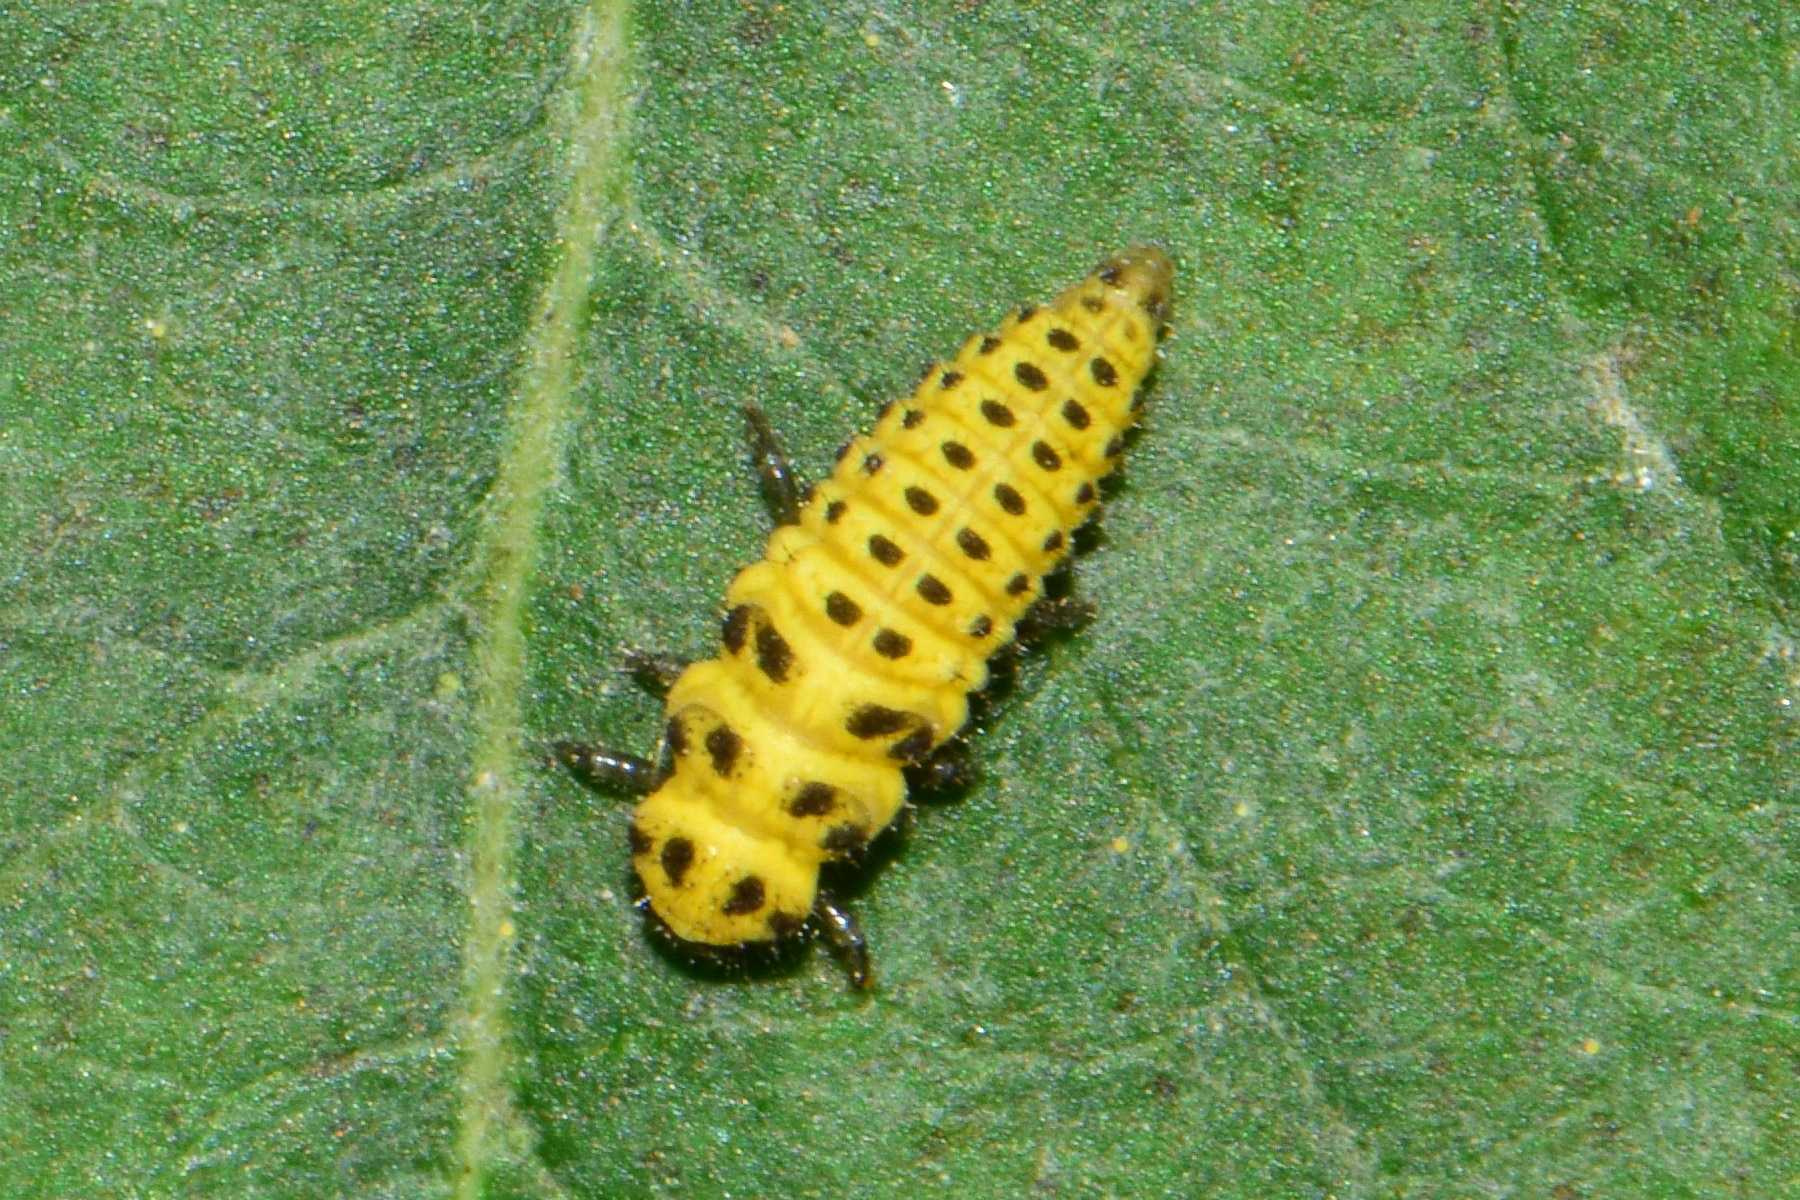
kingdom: Animalia
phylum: Arthropoda
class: Insecta
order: Coleoptera
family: Coccinellidae
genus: Psyllobora
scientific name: Psyllobora vigintiduopunctata
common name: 22-spot ladybird
